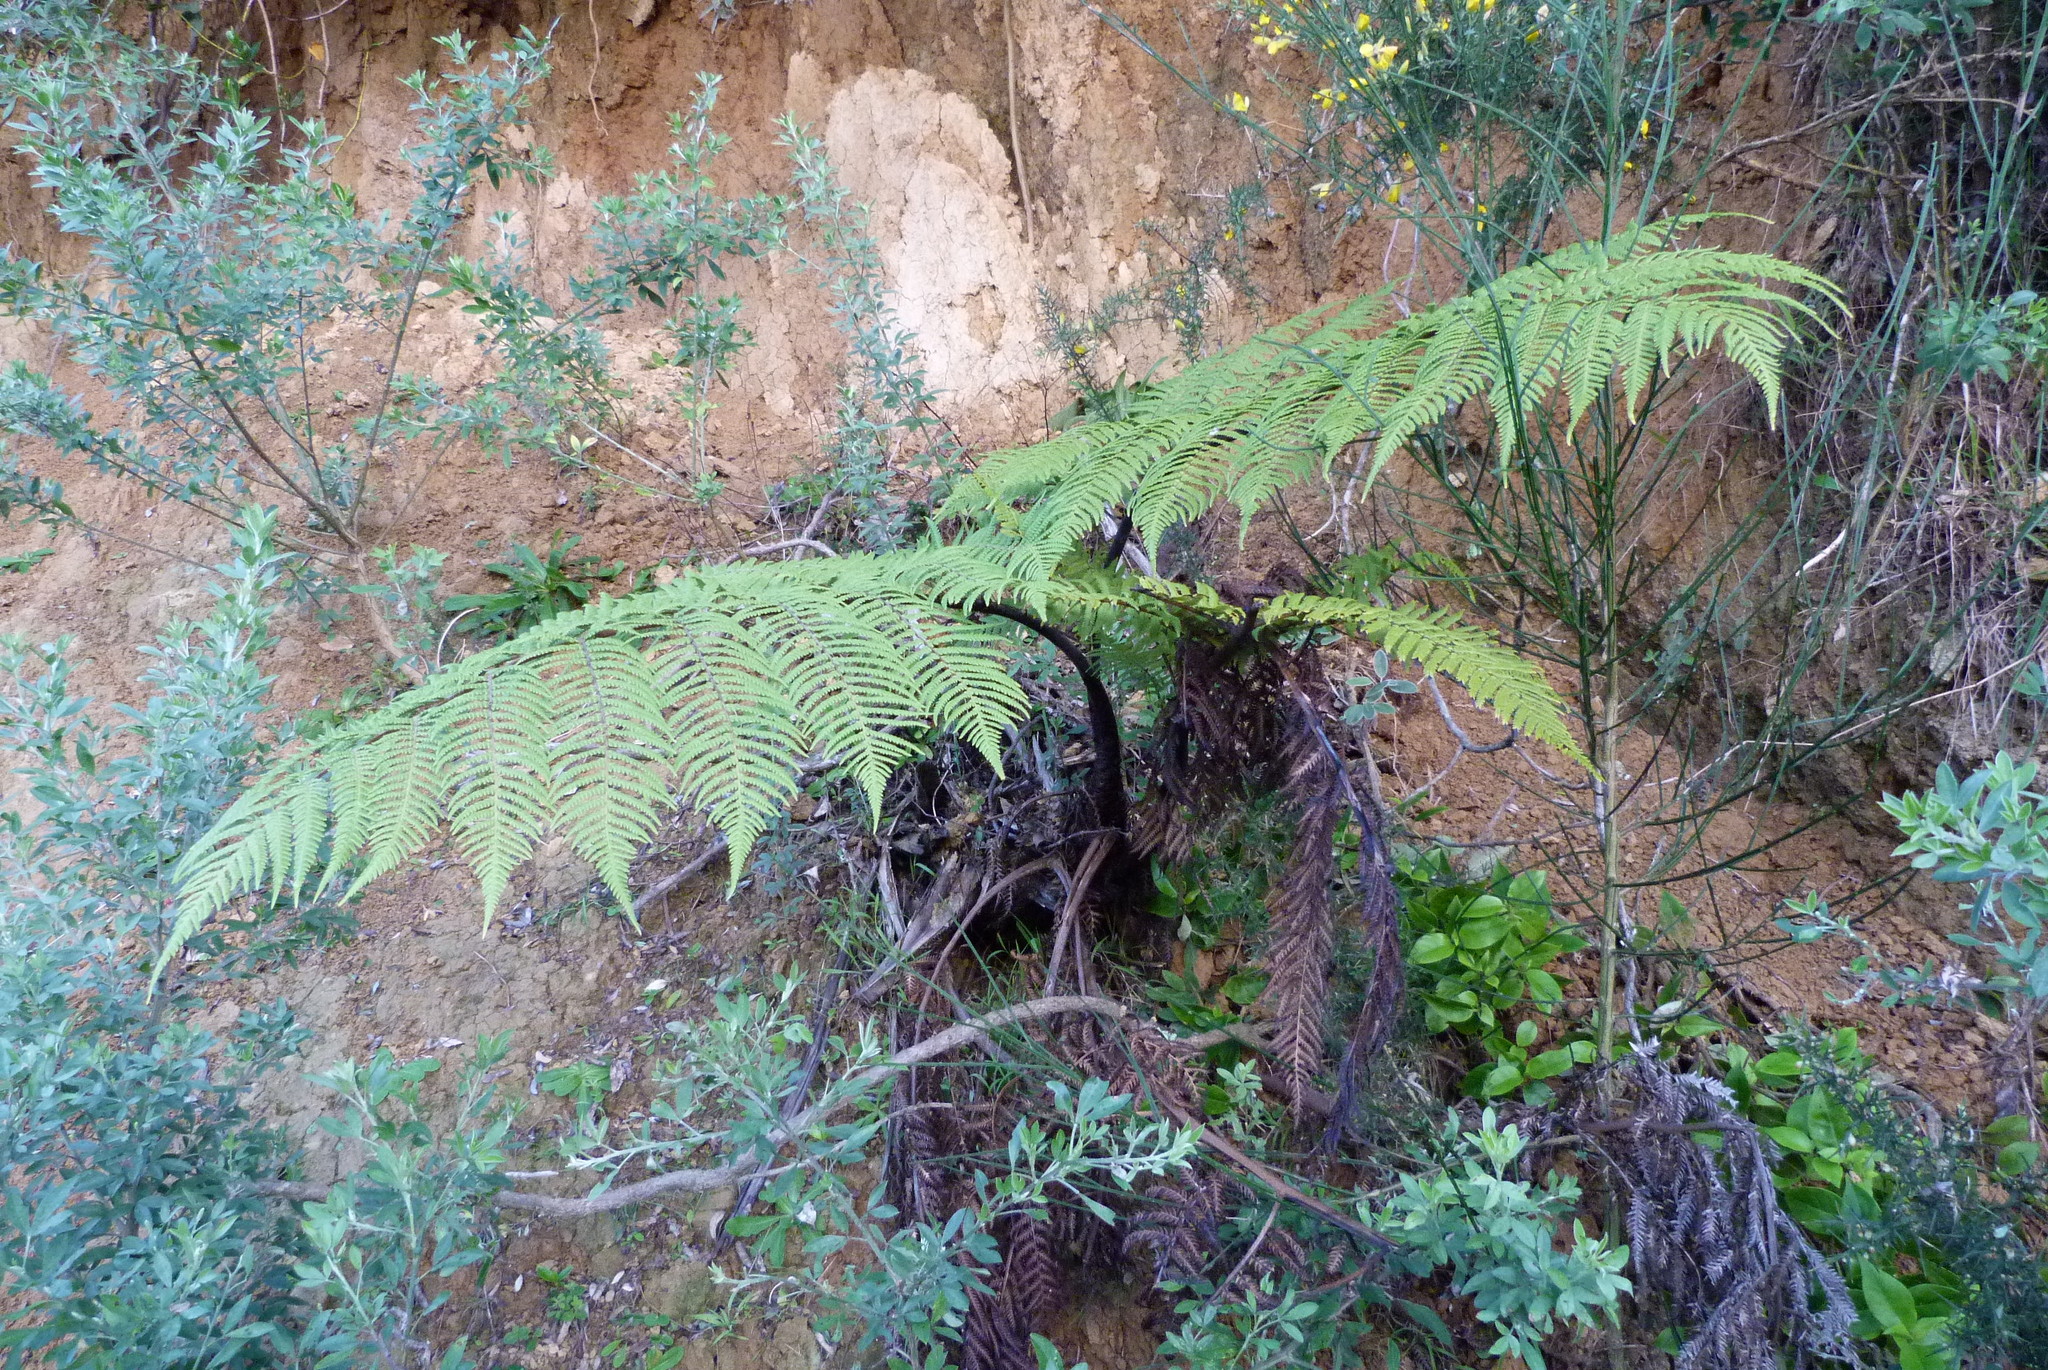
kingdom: Plantae
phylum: Tracheophyta
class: Polypodiopsida
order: Cyatheales
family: Cyatheaceae
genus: Sphaeropteris
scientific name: Sphaeropteris medullaris
